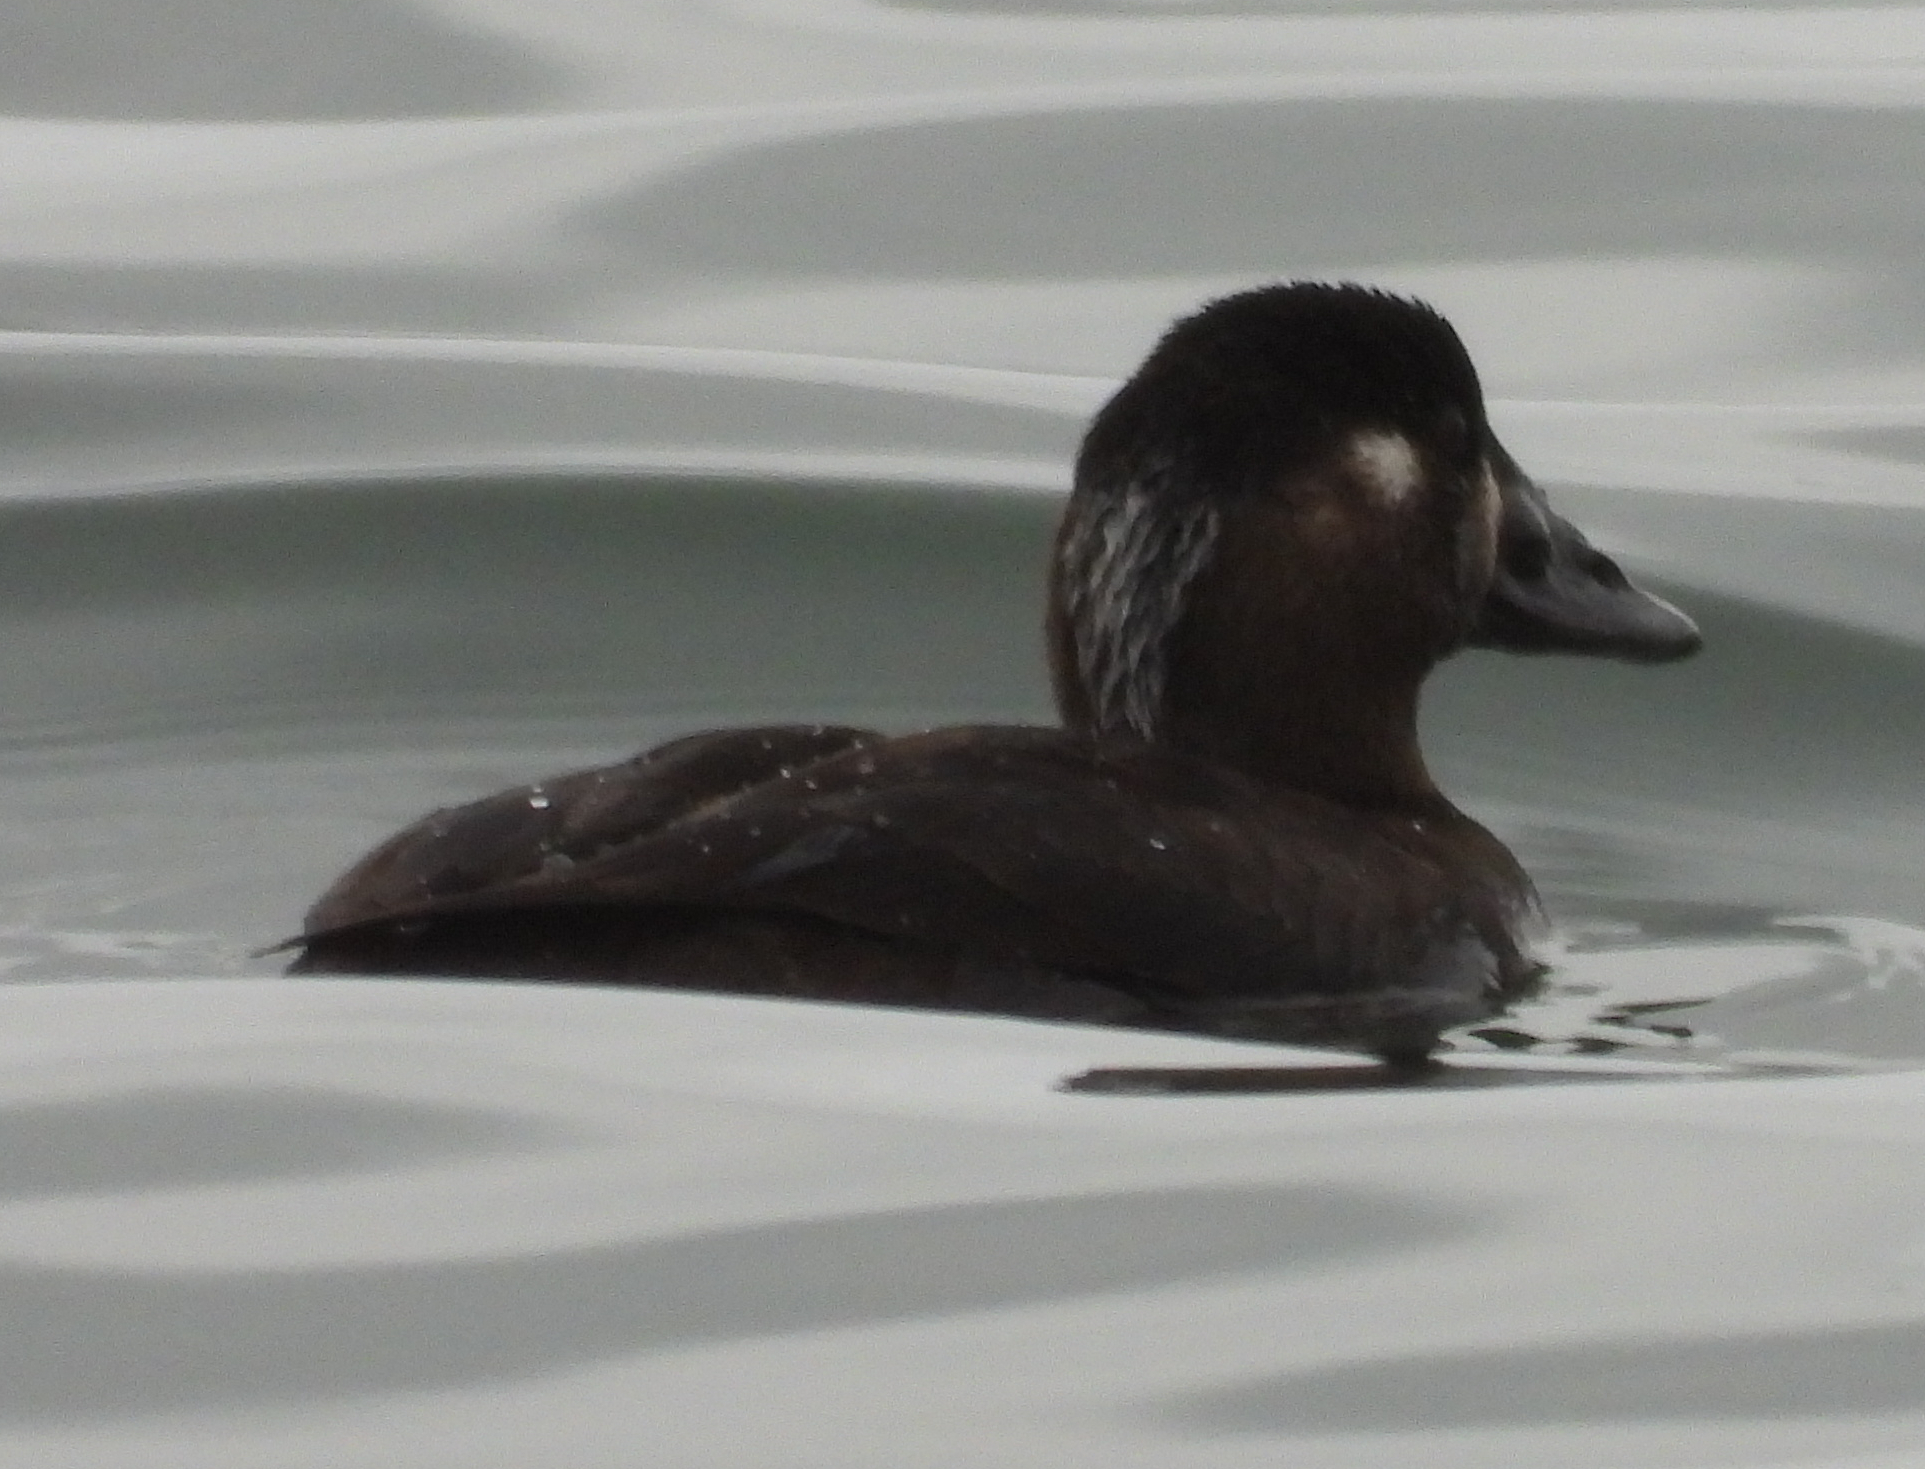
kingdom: Animalia
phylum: Chordata
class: Aves
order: Anseriformes
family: Anatidae
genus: Melanitta
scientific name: Melanitta perspicillata
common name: Surf scoter
